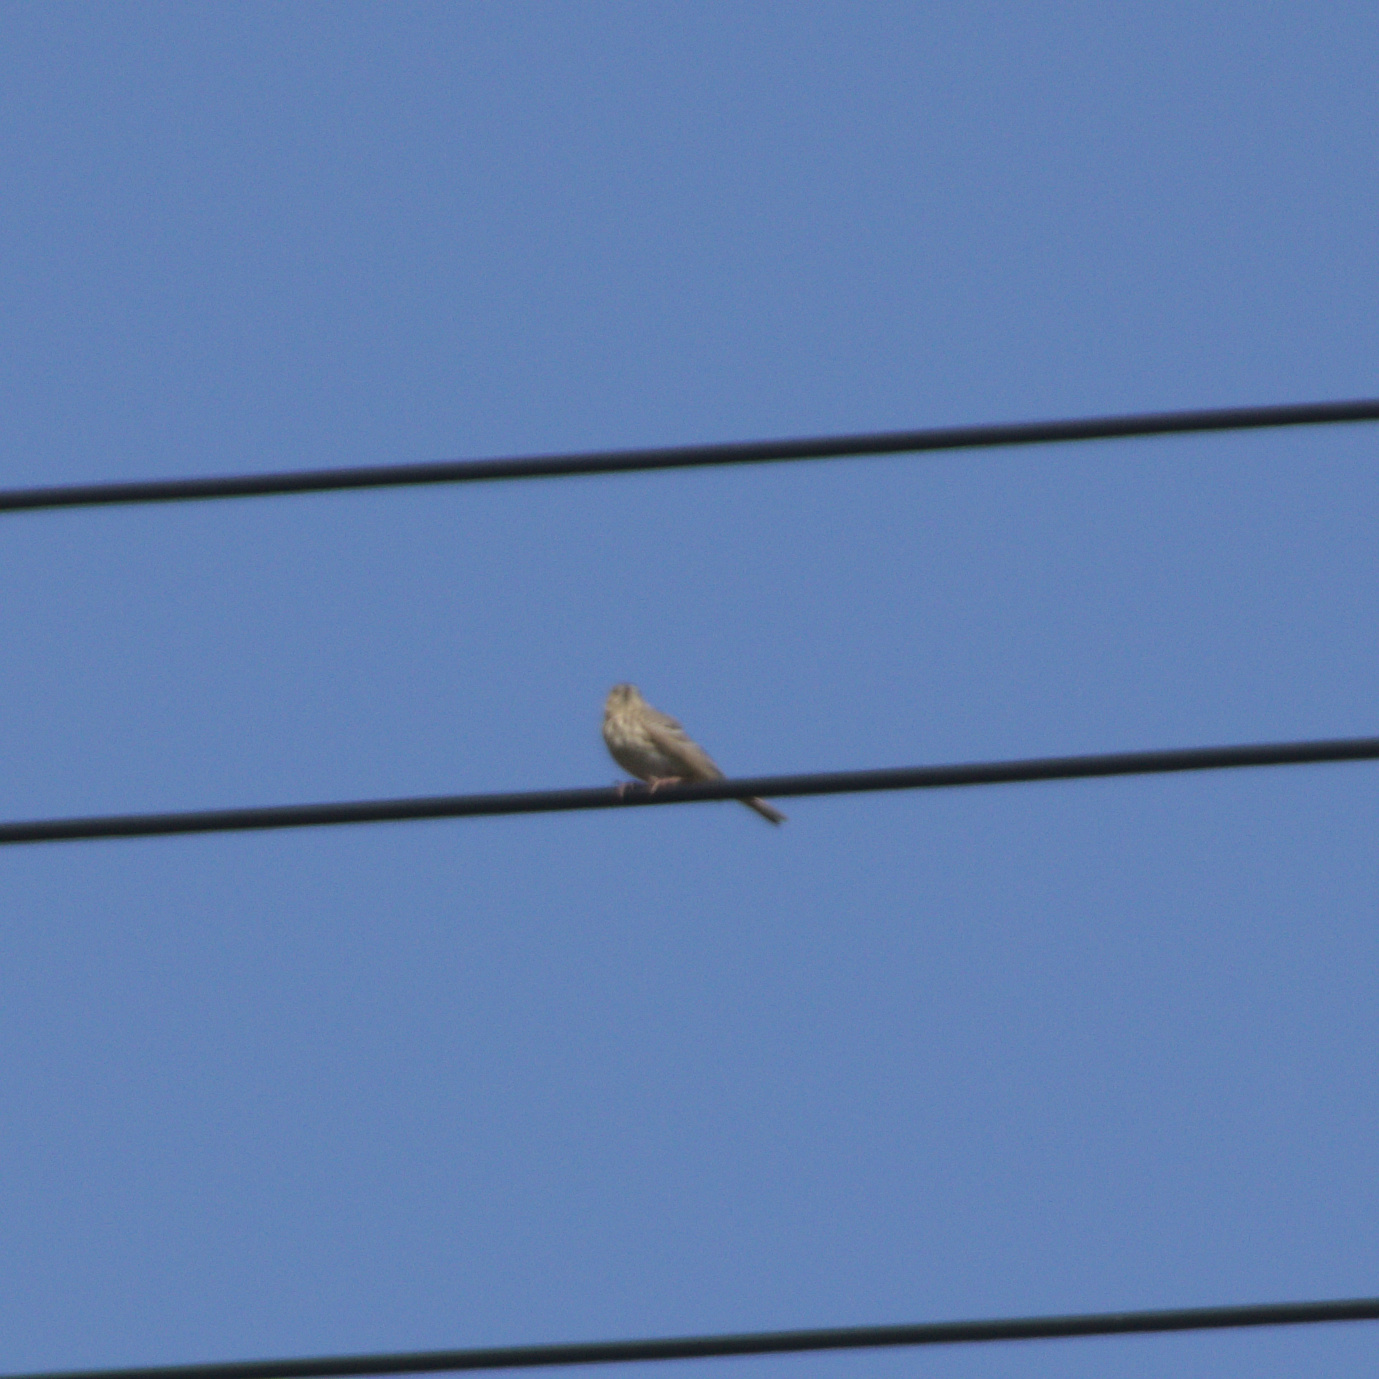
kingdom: Animalia
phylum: Chordata
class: Aves
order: Passeriformes
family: Motacillidae
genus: Anthus
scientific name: Anthus trivialis
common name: Tree pipit
